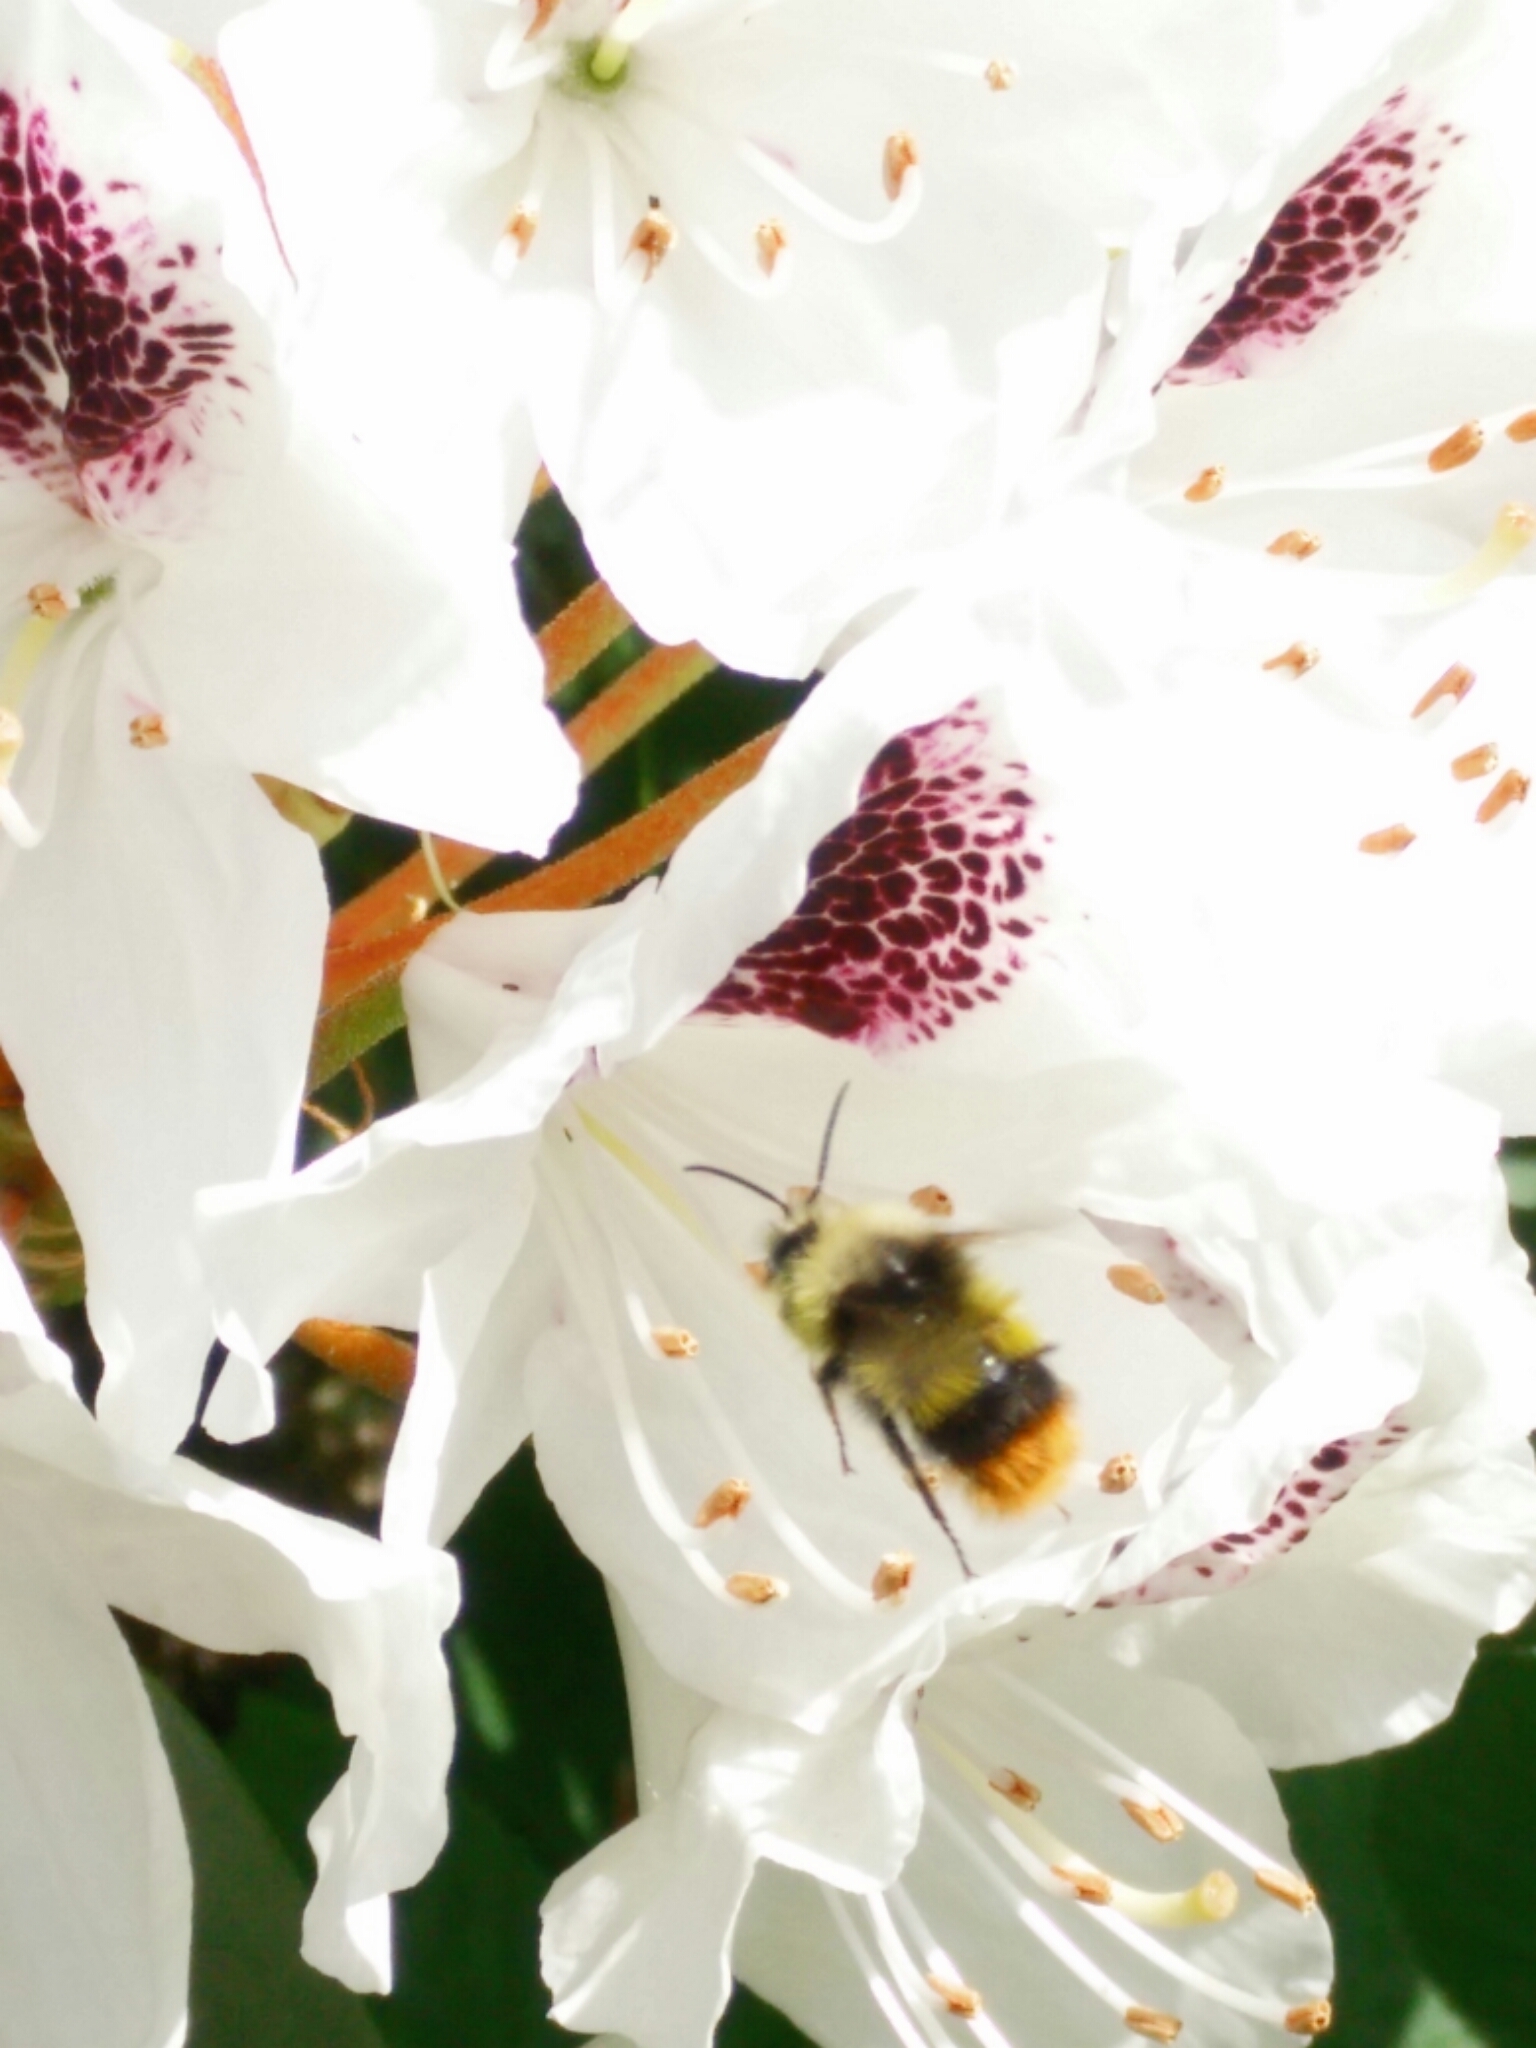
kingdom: Animalia
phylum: Arthropoda
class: Insecta
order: Hymenoptera
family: Apidae
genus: Bombus
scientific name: Bombus pratorum
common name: Early humble-bee
